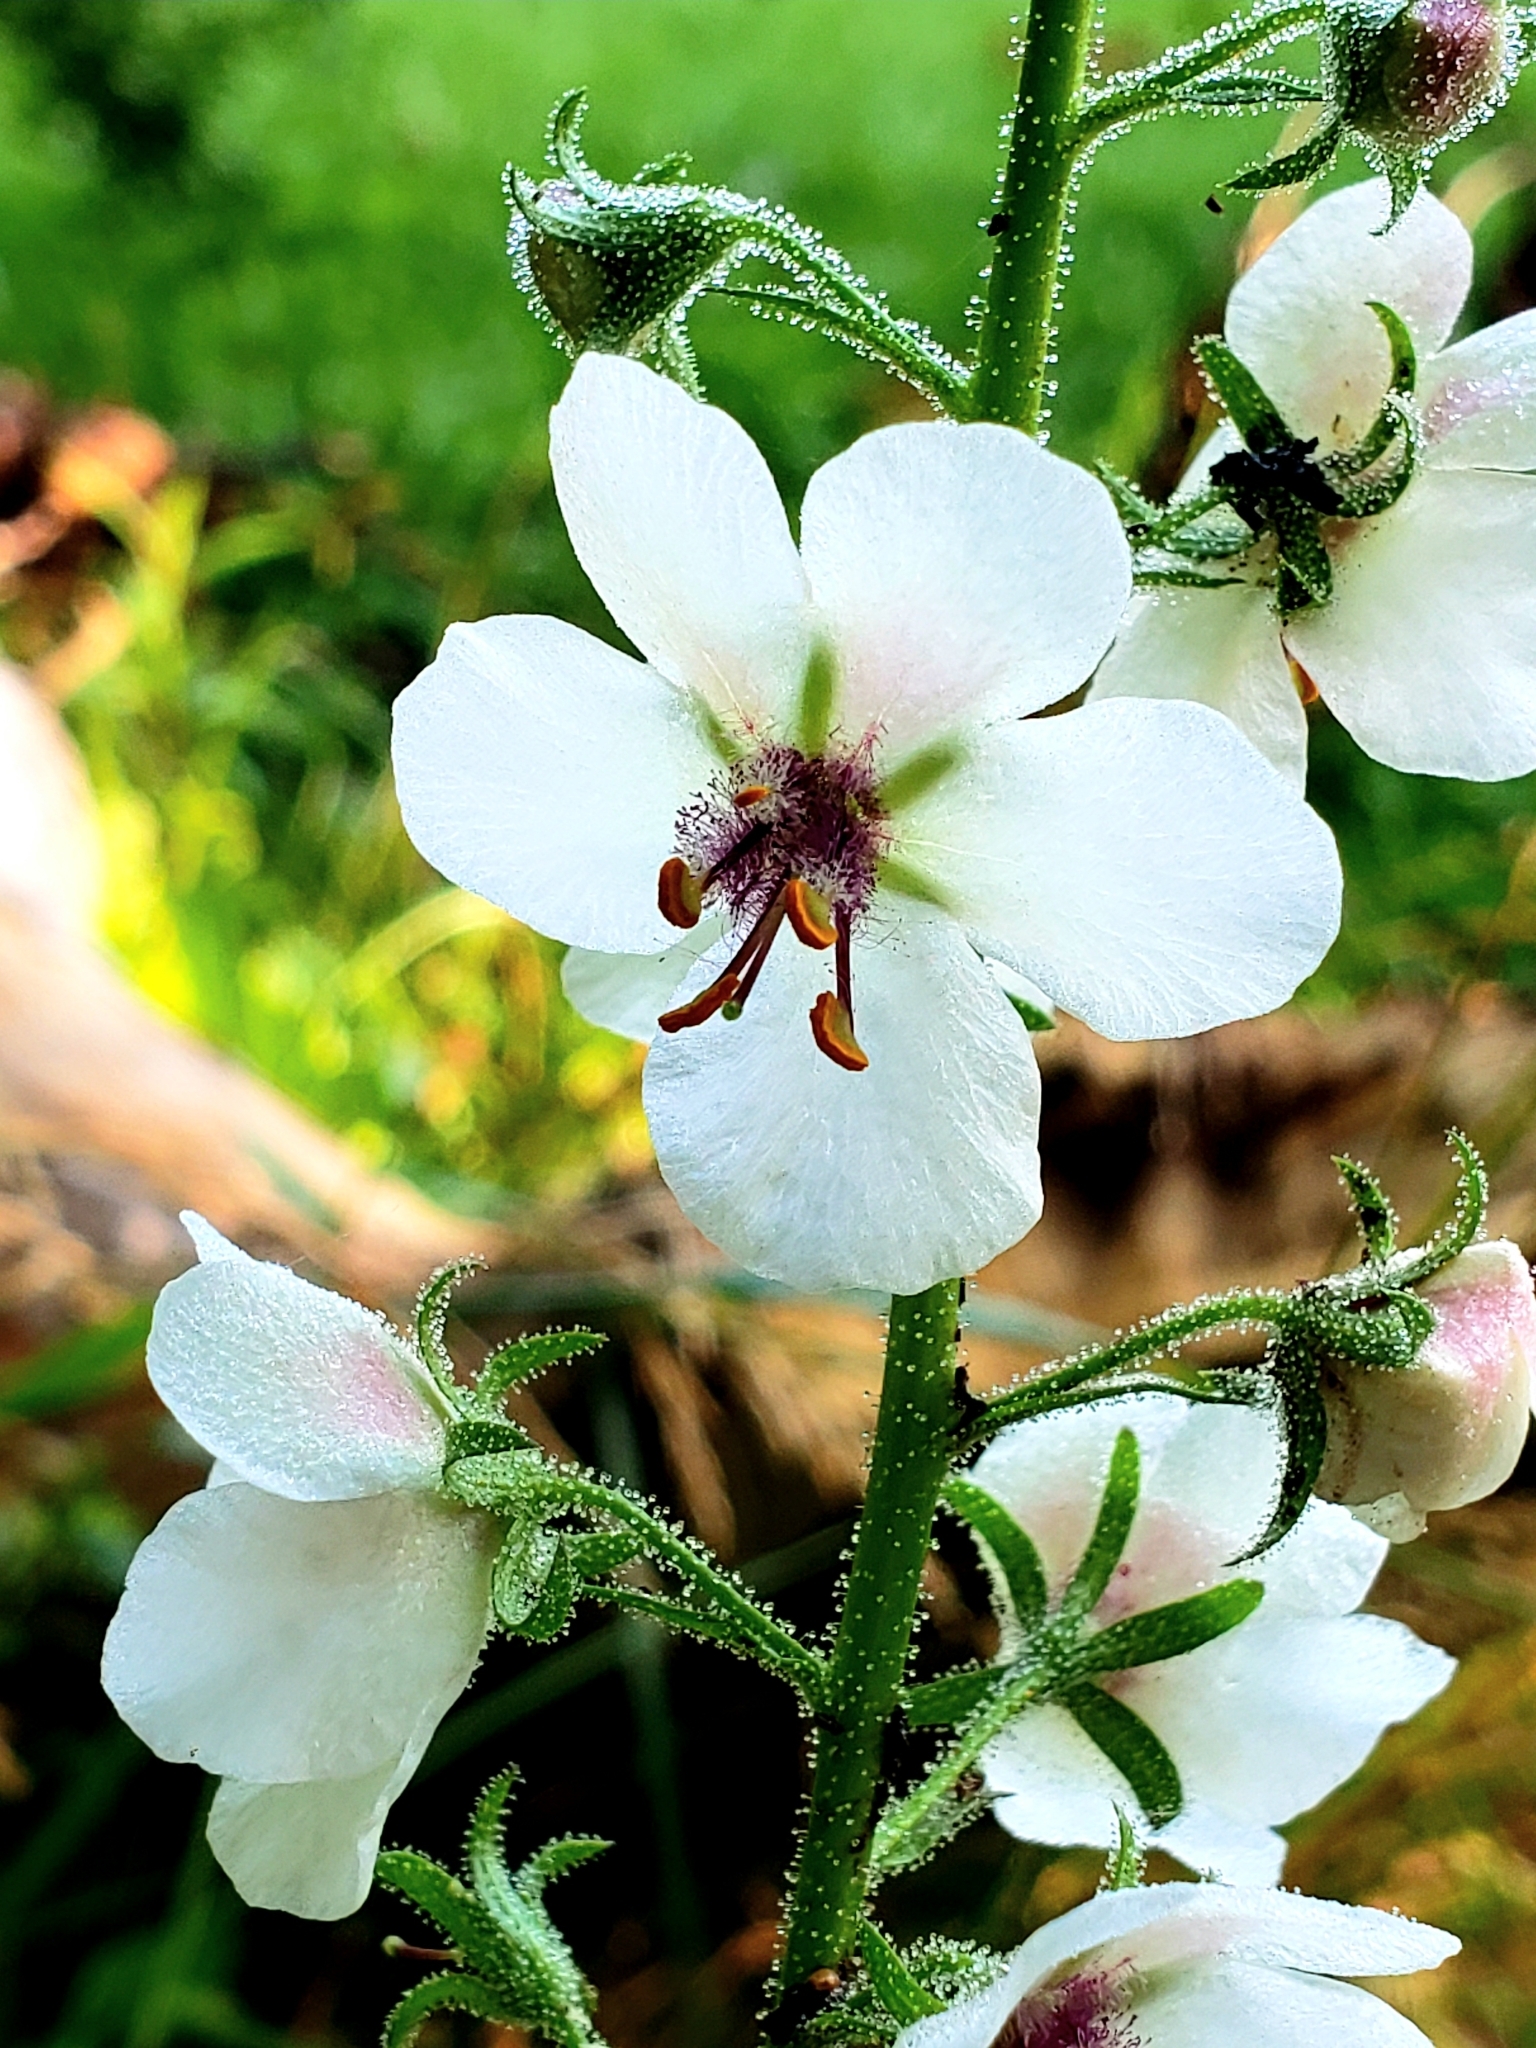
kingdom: Plantae
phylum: Tracheophyta
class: Magnoliopsida
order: Lamiales
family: Scrophulariaceae
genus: Verbascum
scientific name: Verbascum blattaria
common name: Moth mullein
